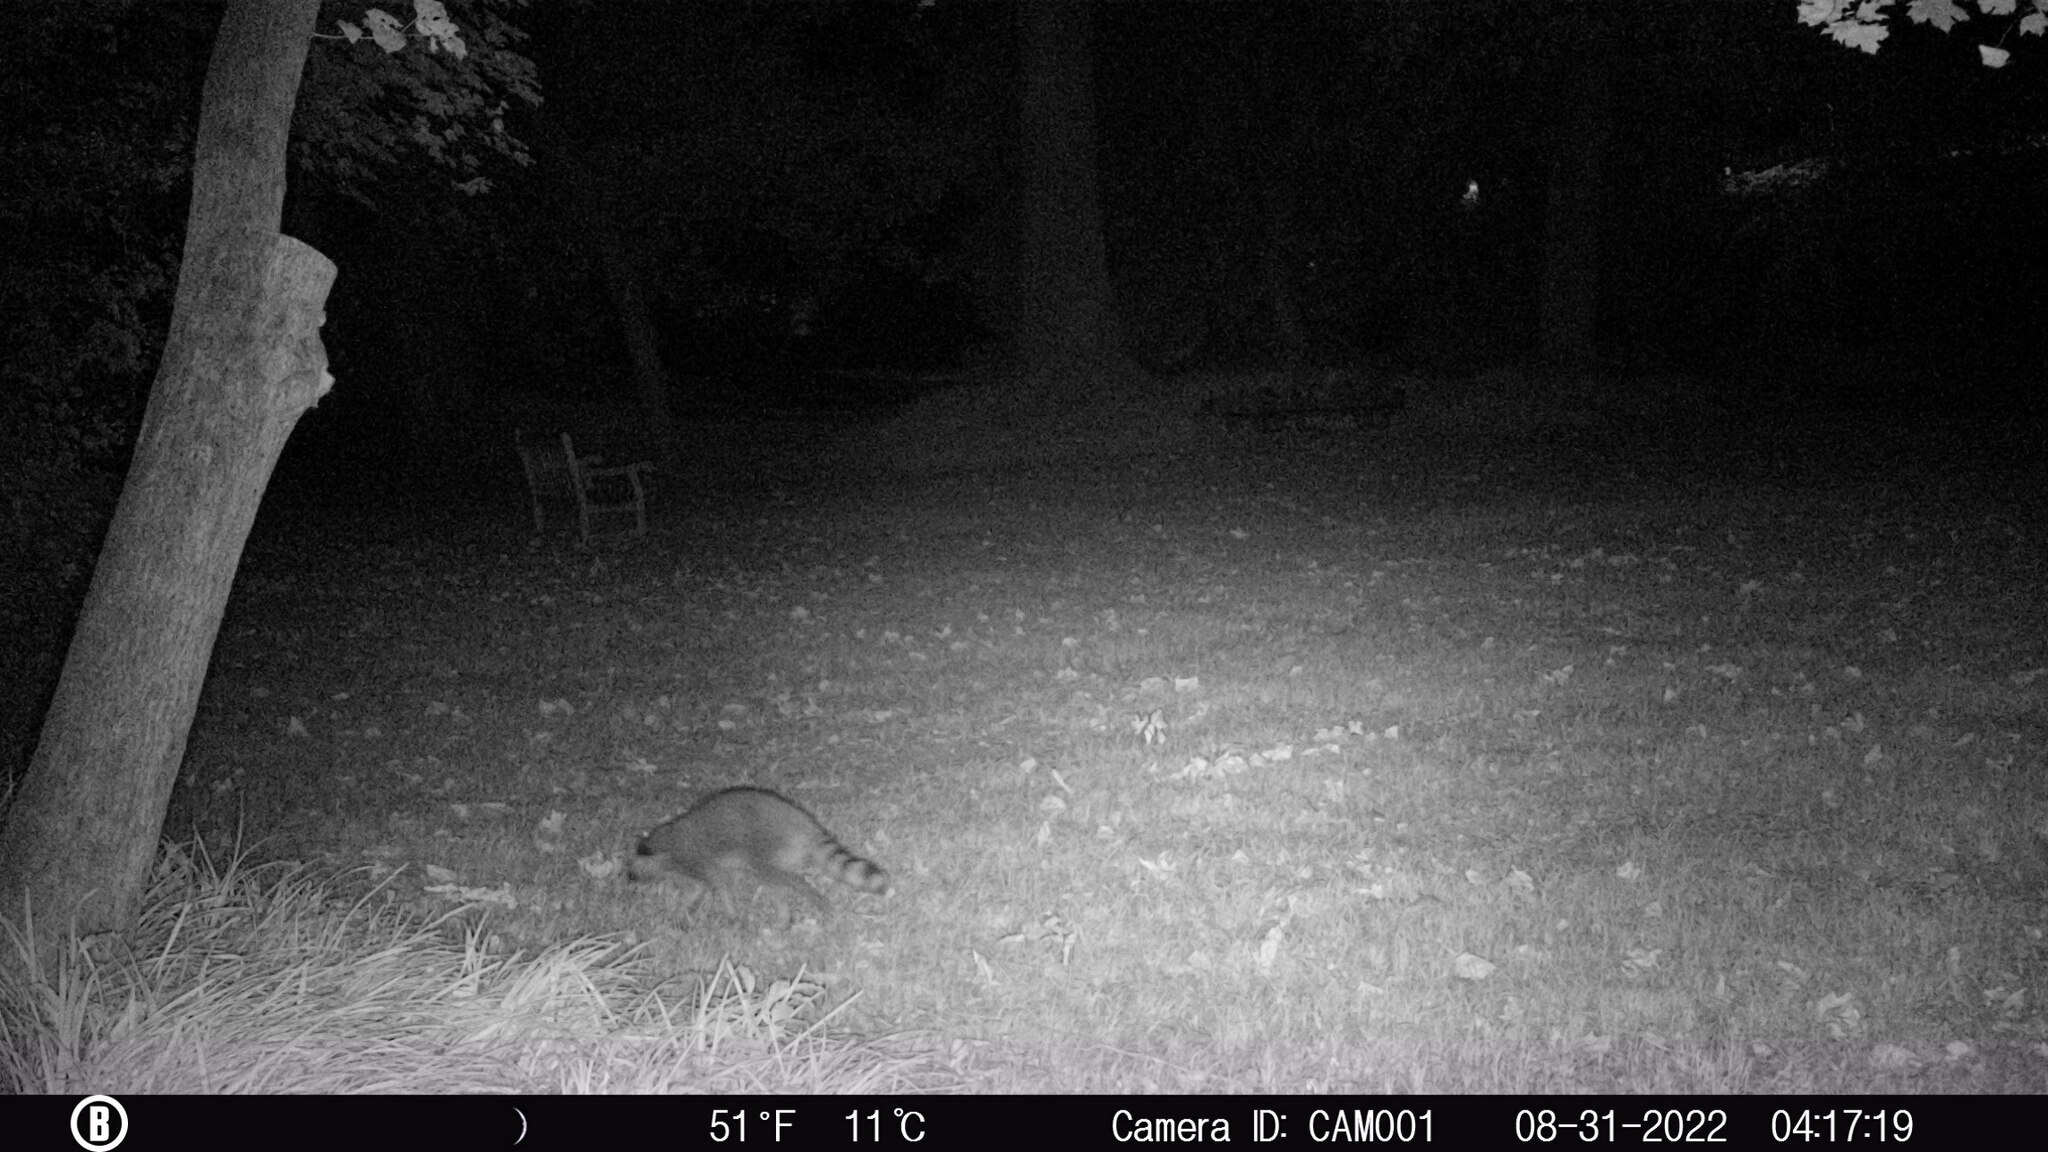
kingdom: Animalia
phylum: Chordata
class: Mammalia
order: Carnivora
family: Procyonidae
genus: Procyon
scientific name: Procyon lotor
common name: Raccoon
